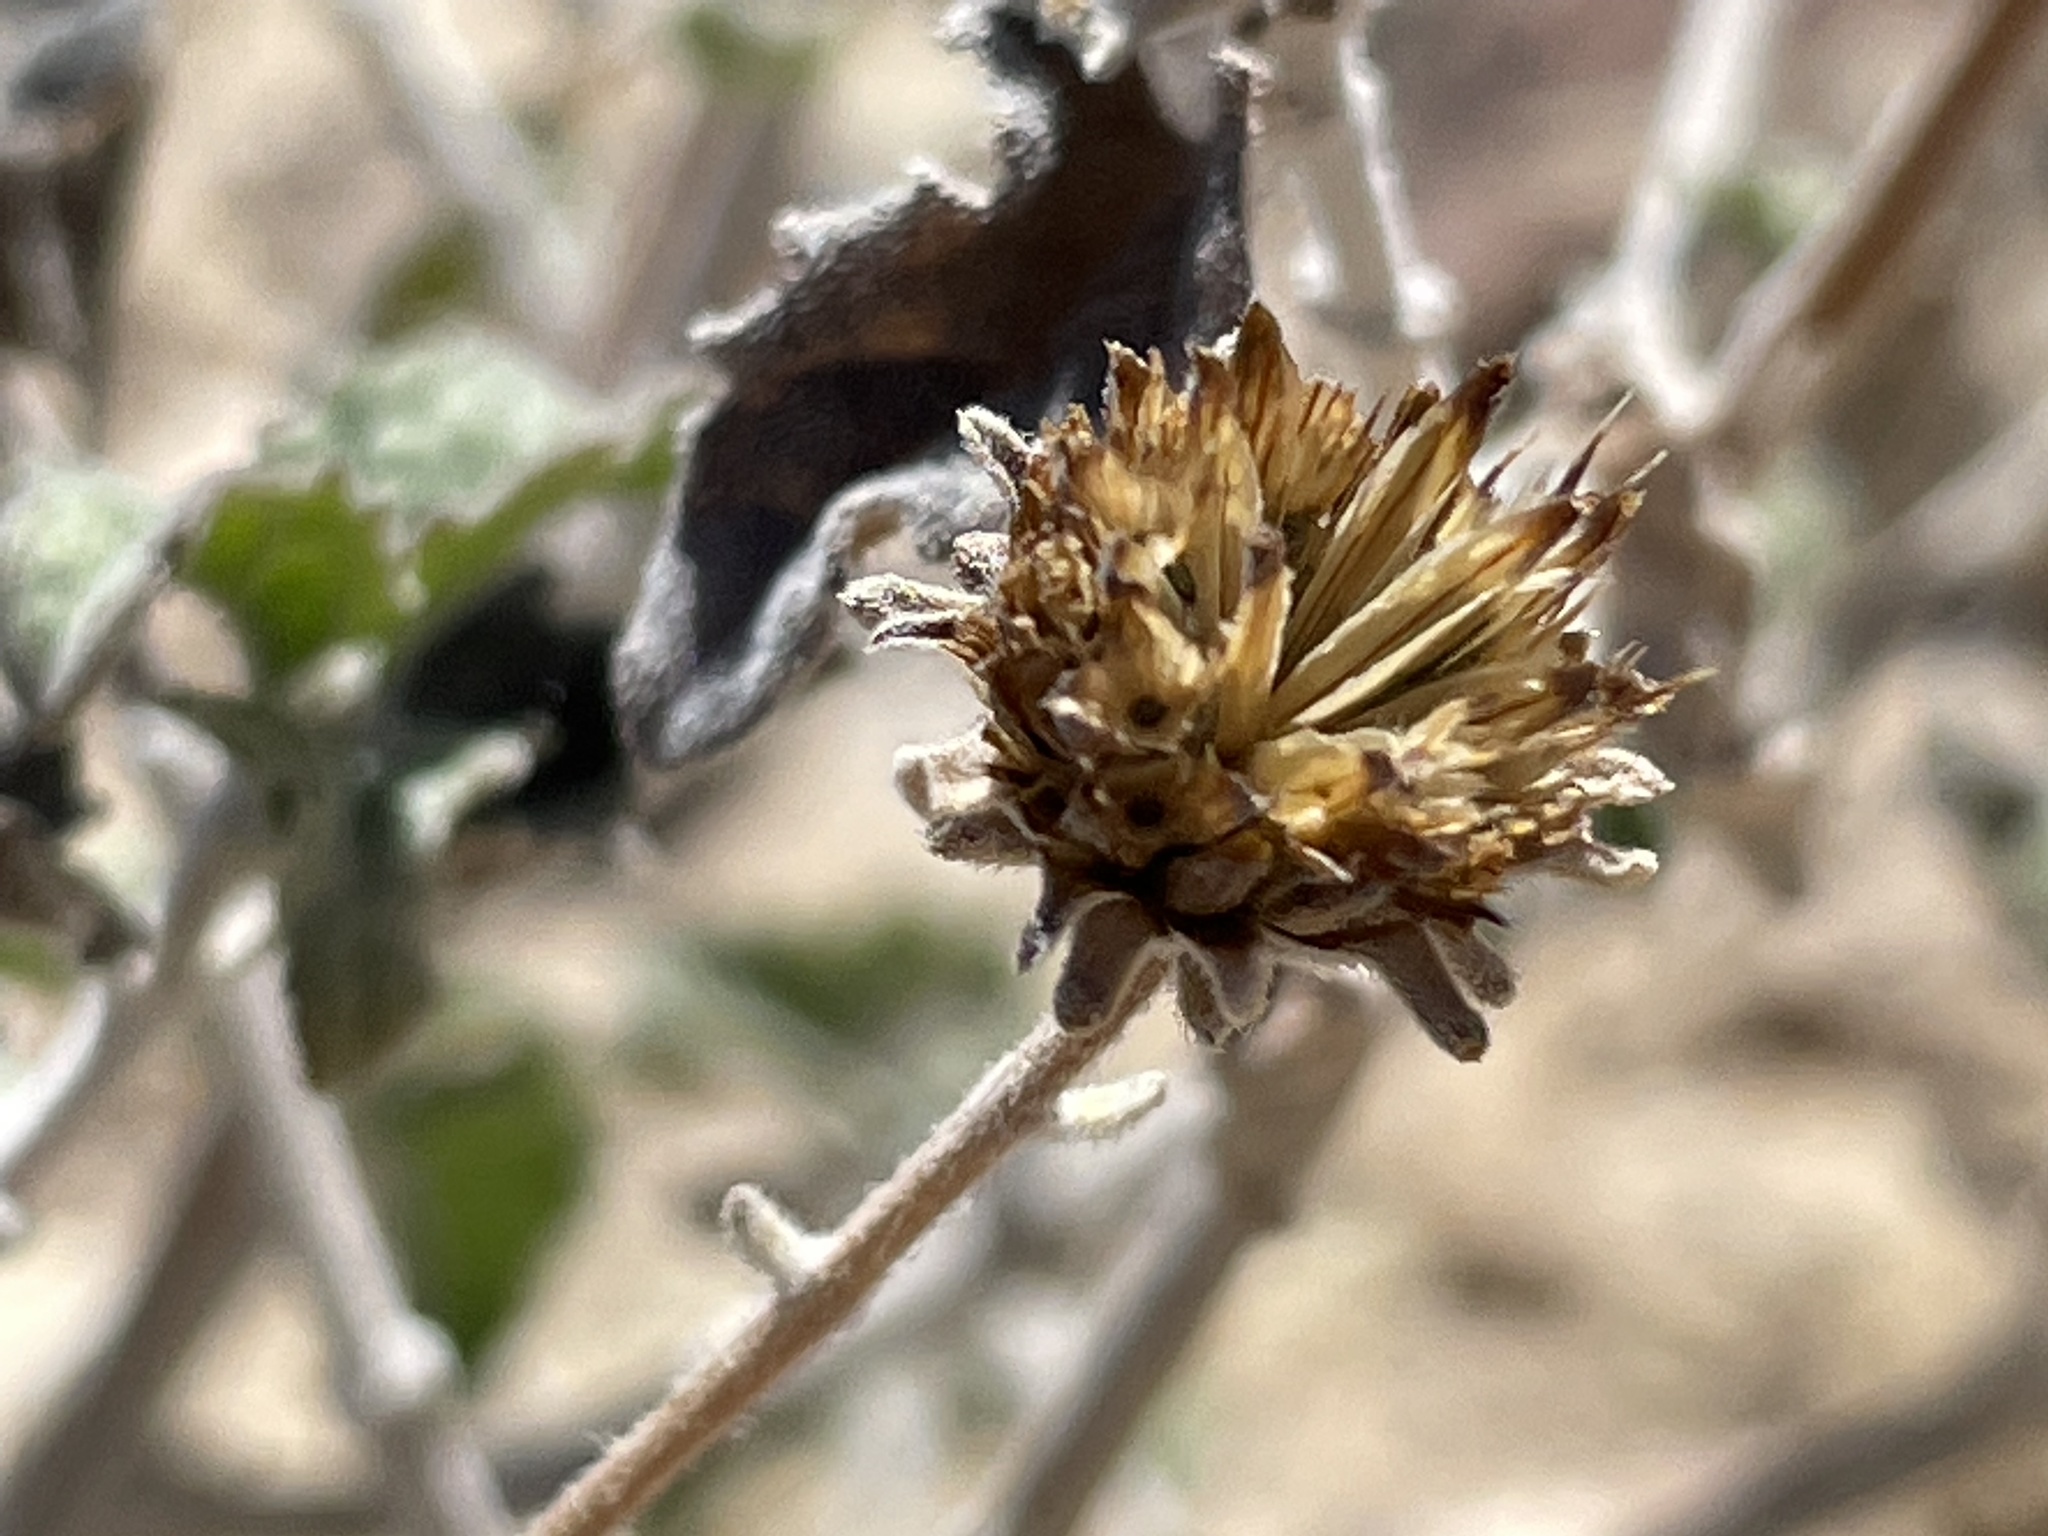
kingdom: Plantae
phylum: Tracheophyta
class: Magnoliopsida
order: Asterales
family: Asteraceae
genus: Bahiopsis
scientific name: Bahiopsis parishii
